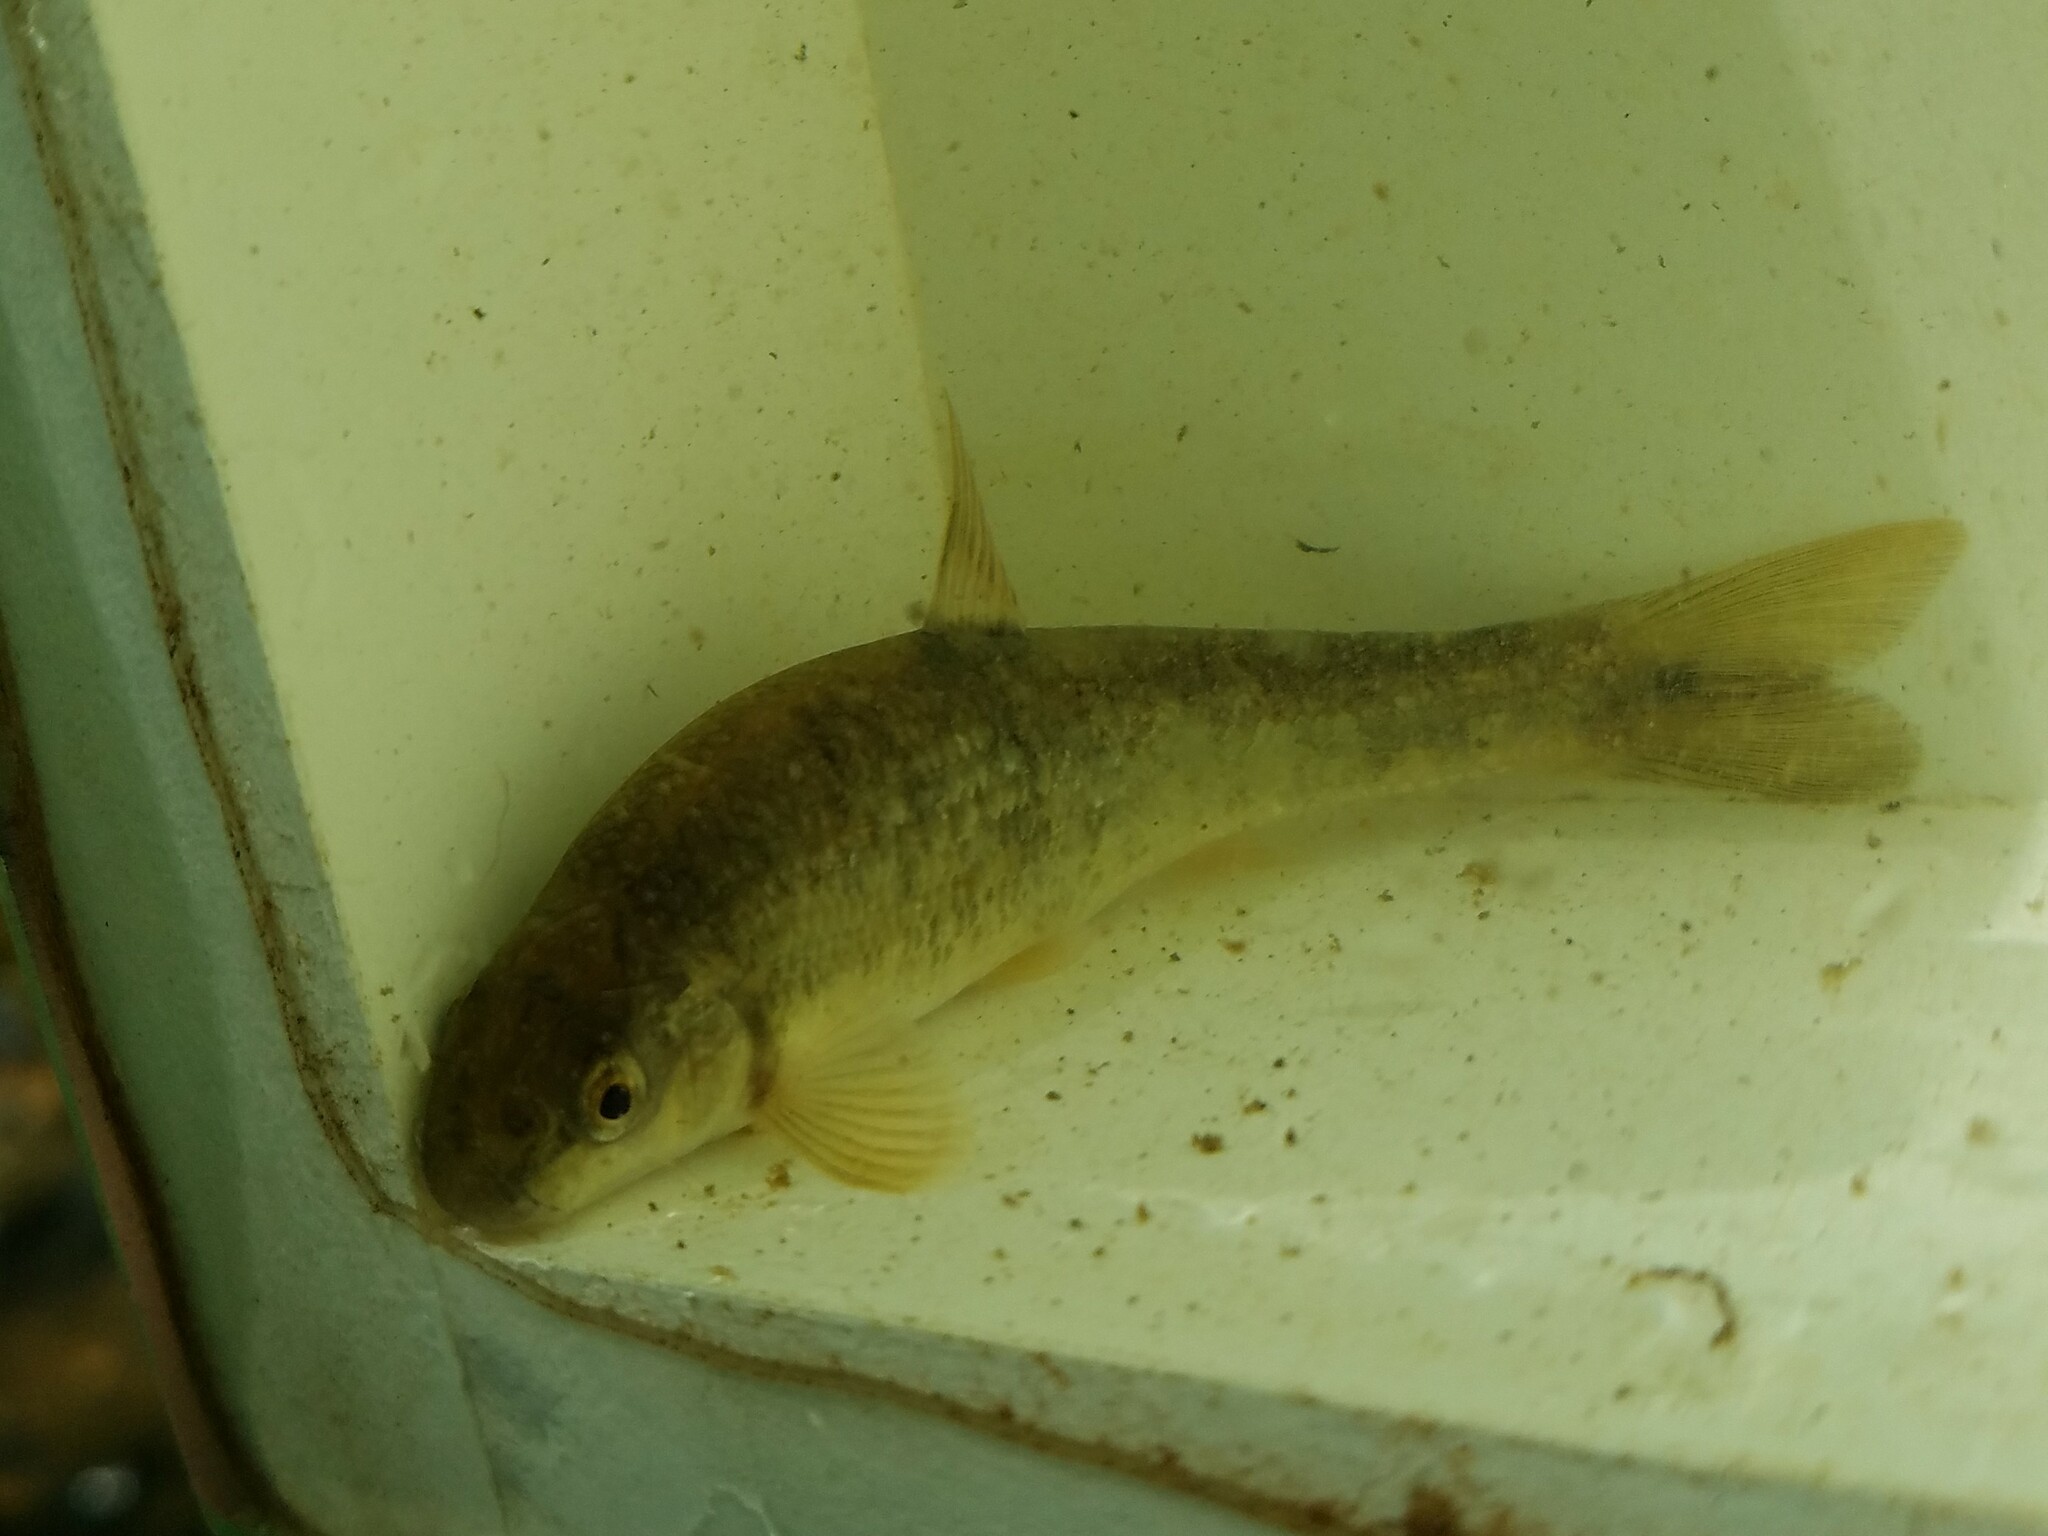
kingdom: Animalia
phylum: Chordata
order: Cypriniformes
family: Cyprinidae
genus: Campostoma
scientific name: Campostoma oligolepis
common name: Largescale stoneroller
